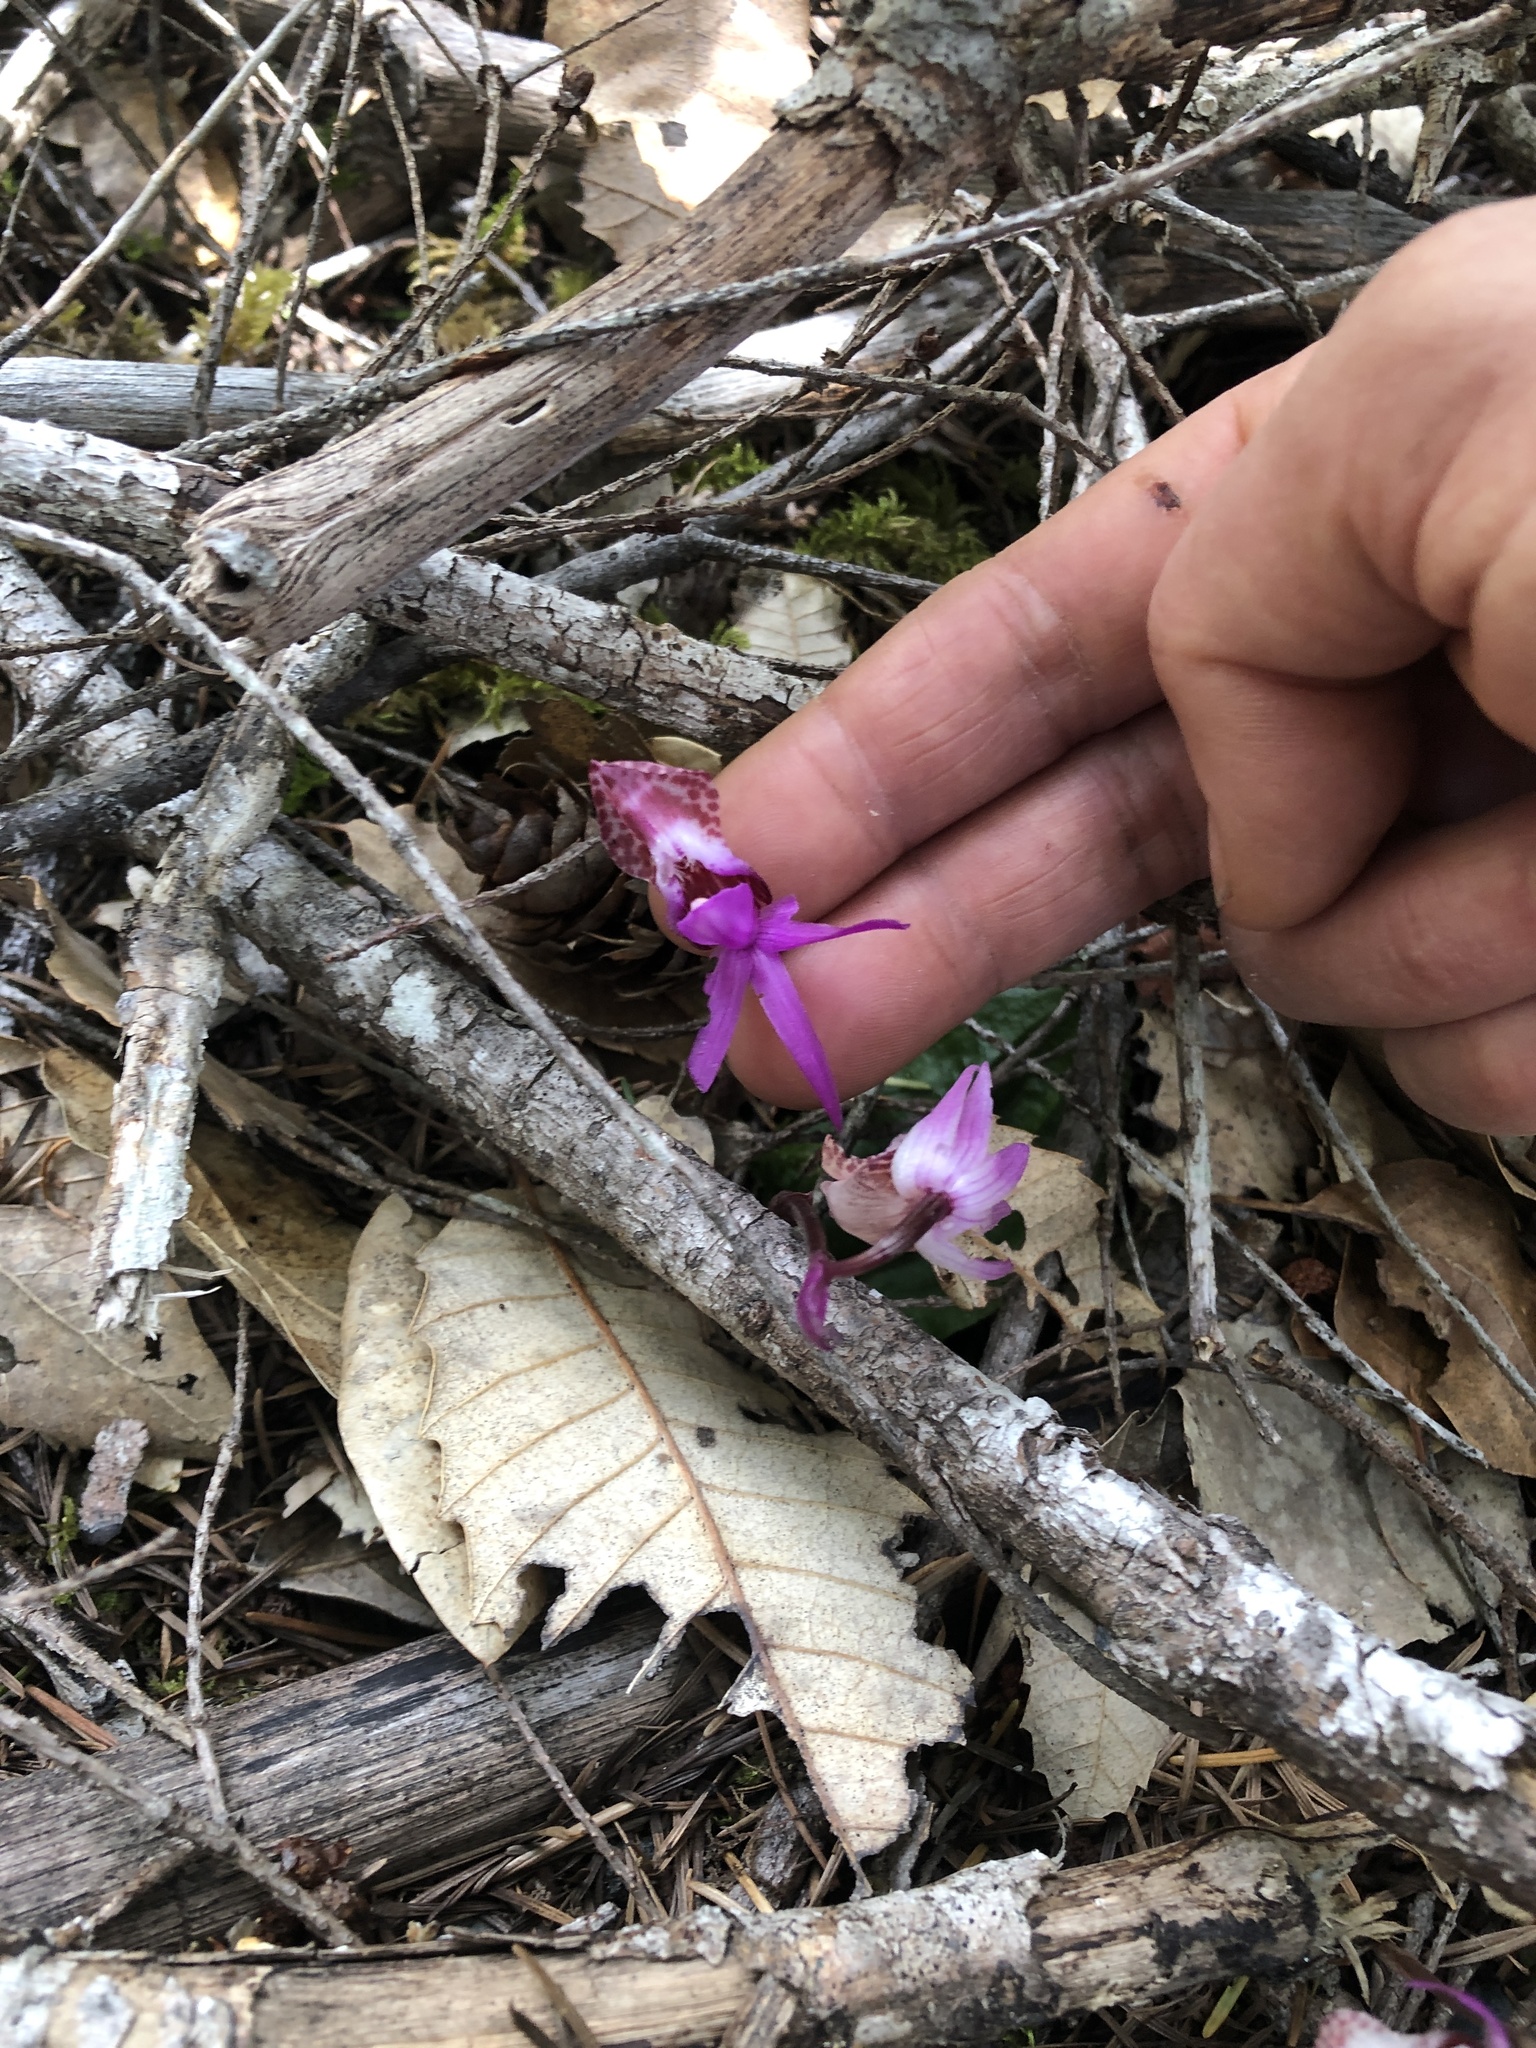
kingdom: Plantae
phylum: Tracheophyta
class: Liliopsida
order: Asparagales
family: Orchidaceae
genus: Calypso
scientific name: Calypso bulbosa
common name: Calypso
